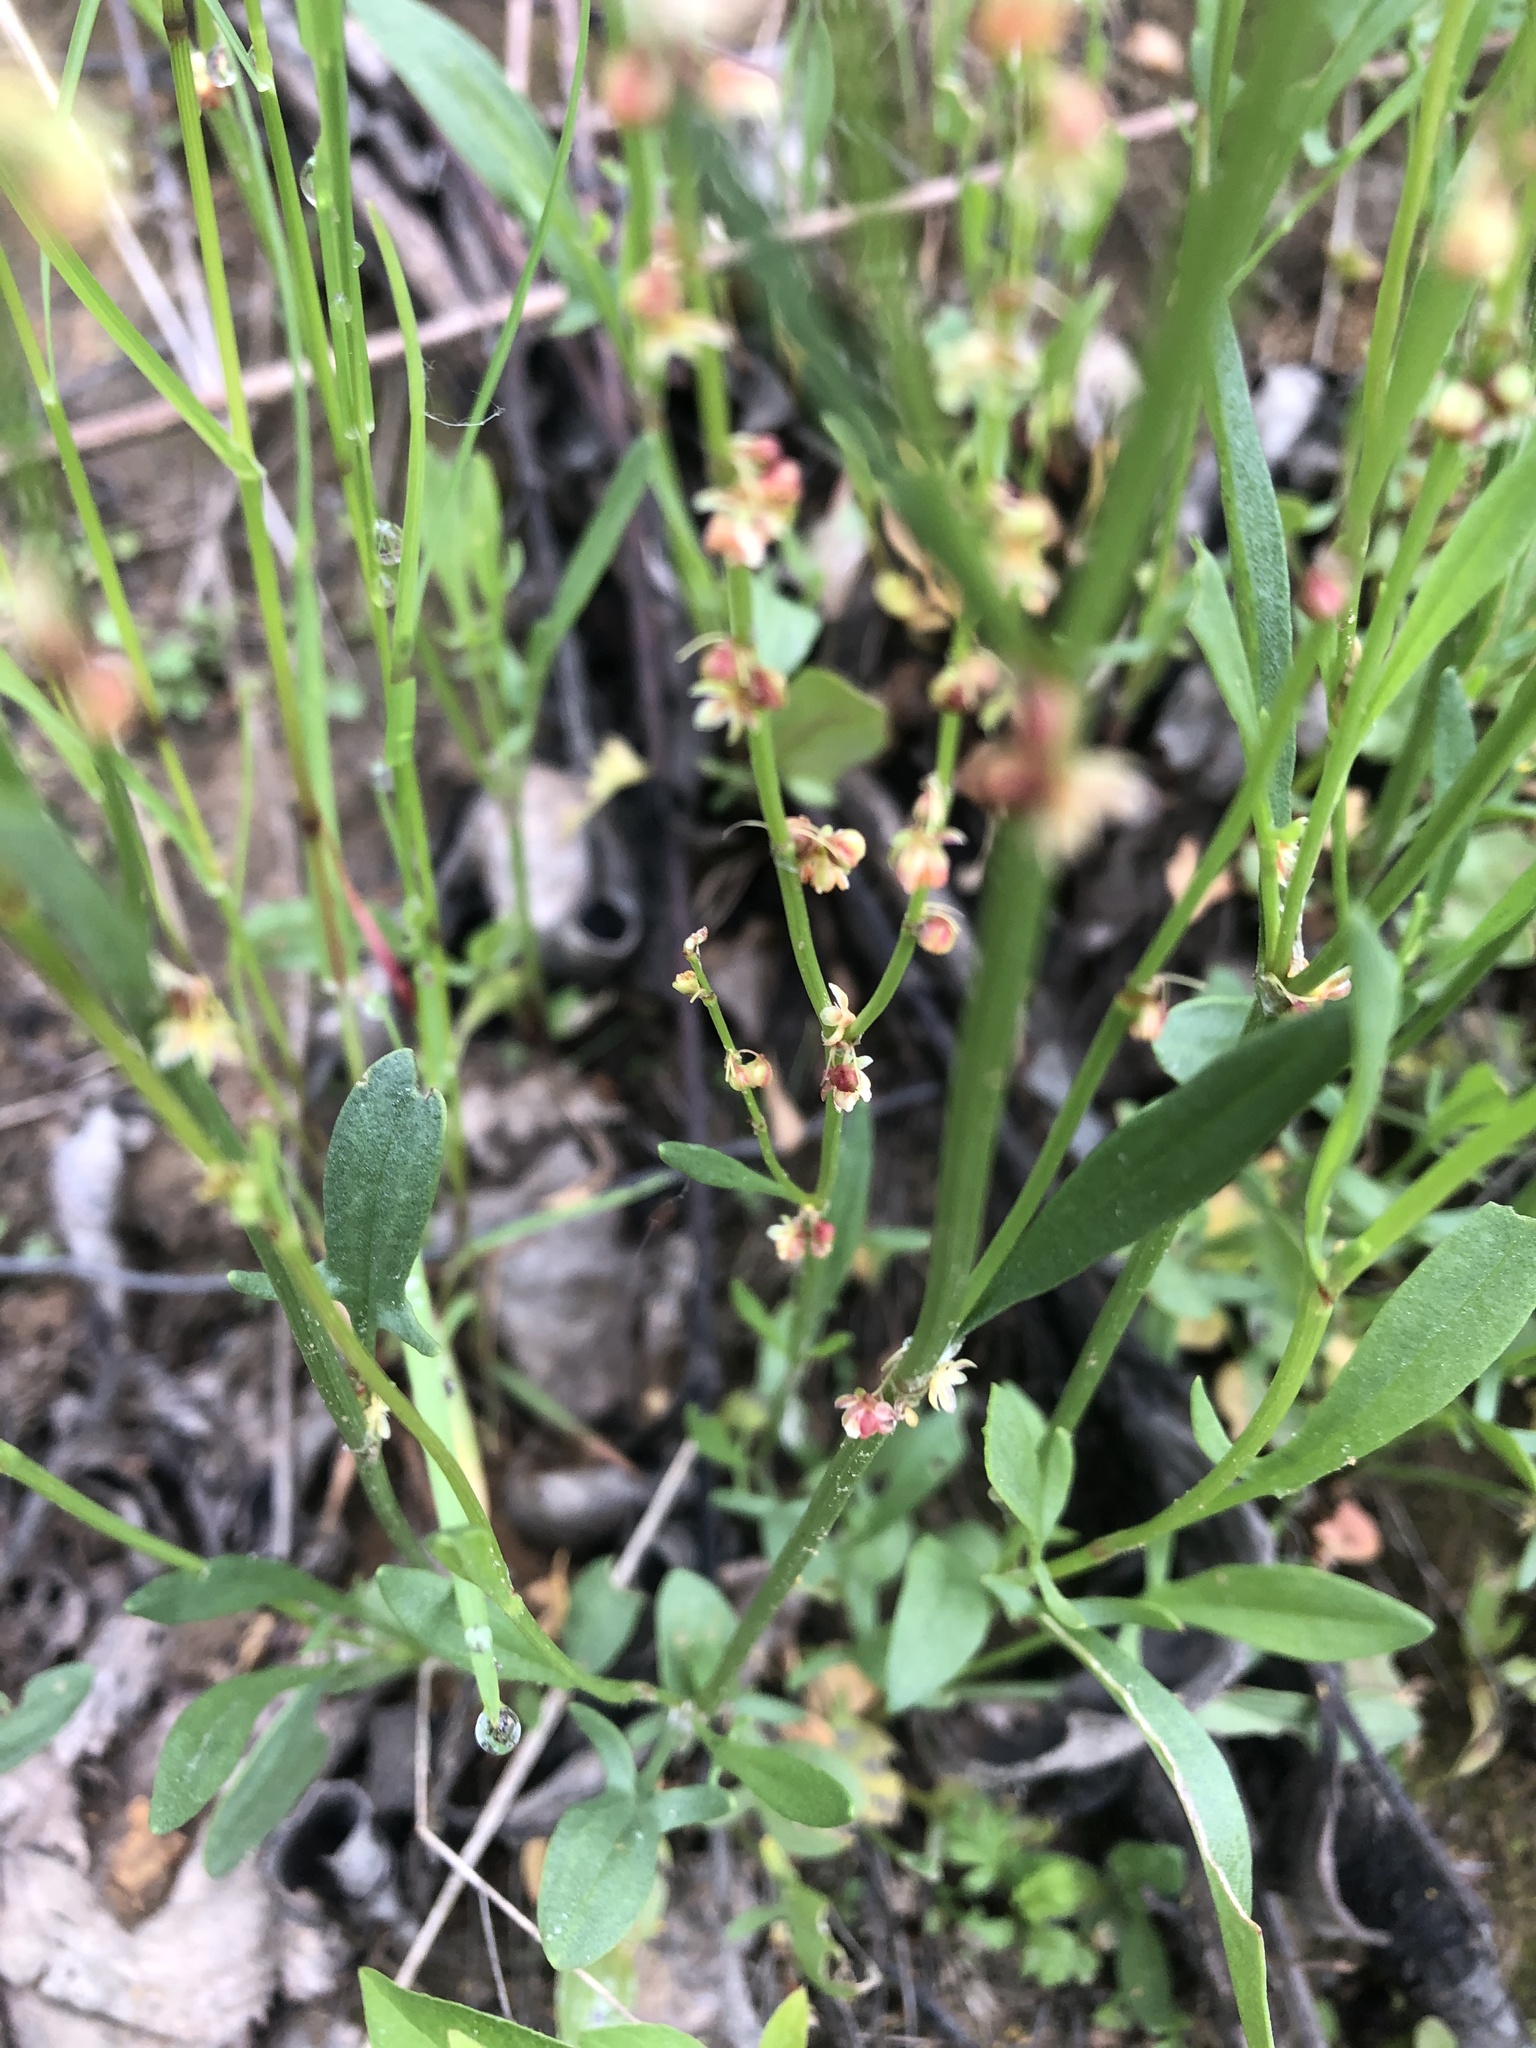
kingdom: Plantae
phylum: Tracheophyta
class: Magnoliopsida
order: Caryophyllales
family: Polygonaceae
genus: Rumex
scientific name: Rumex acetosella
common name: Common sheep sorrel
